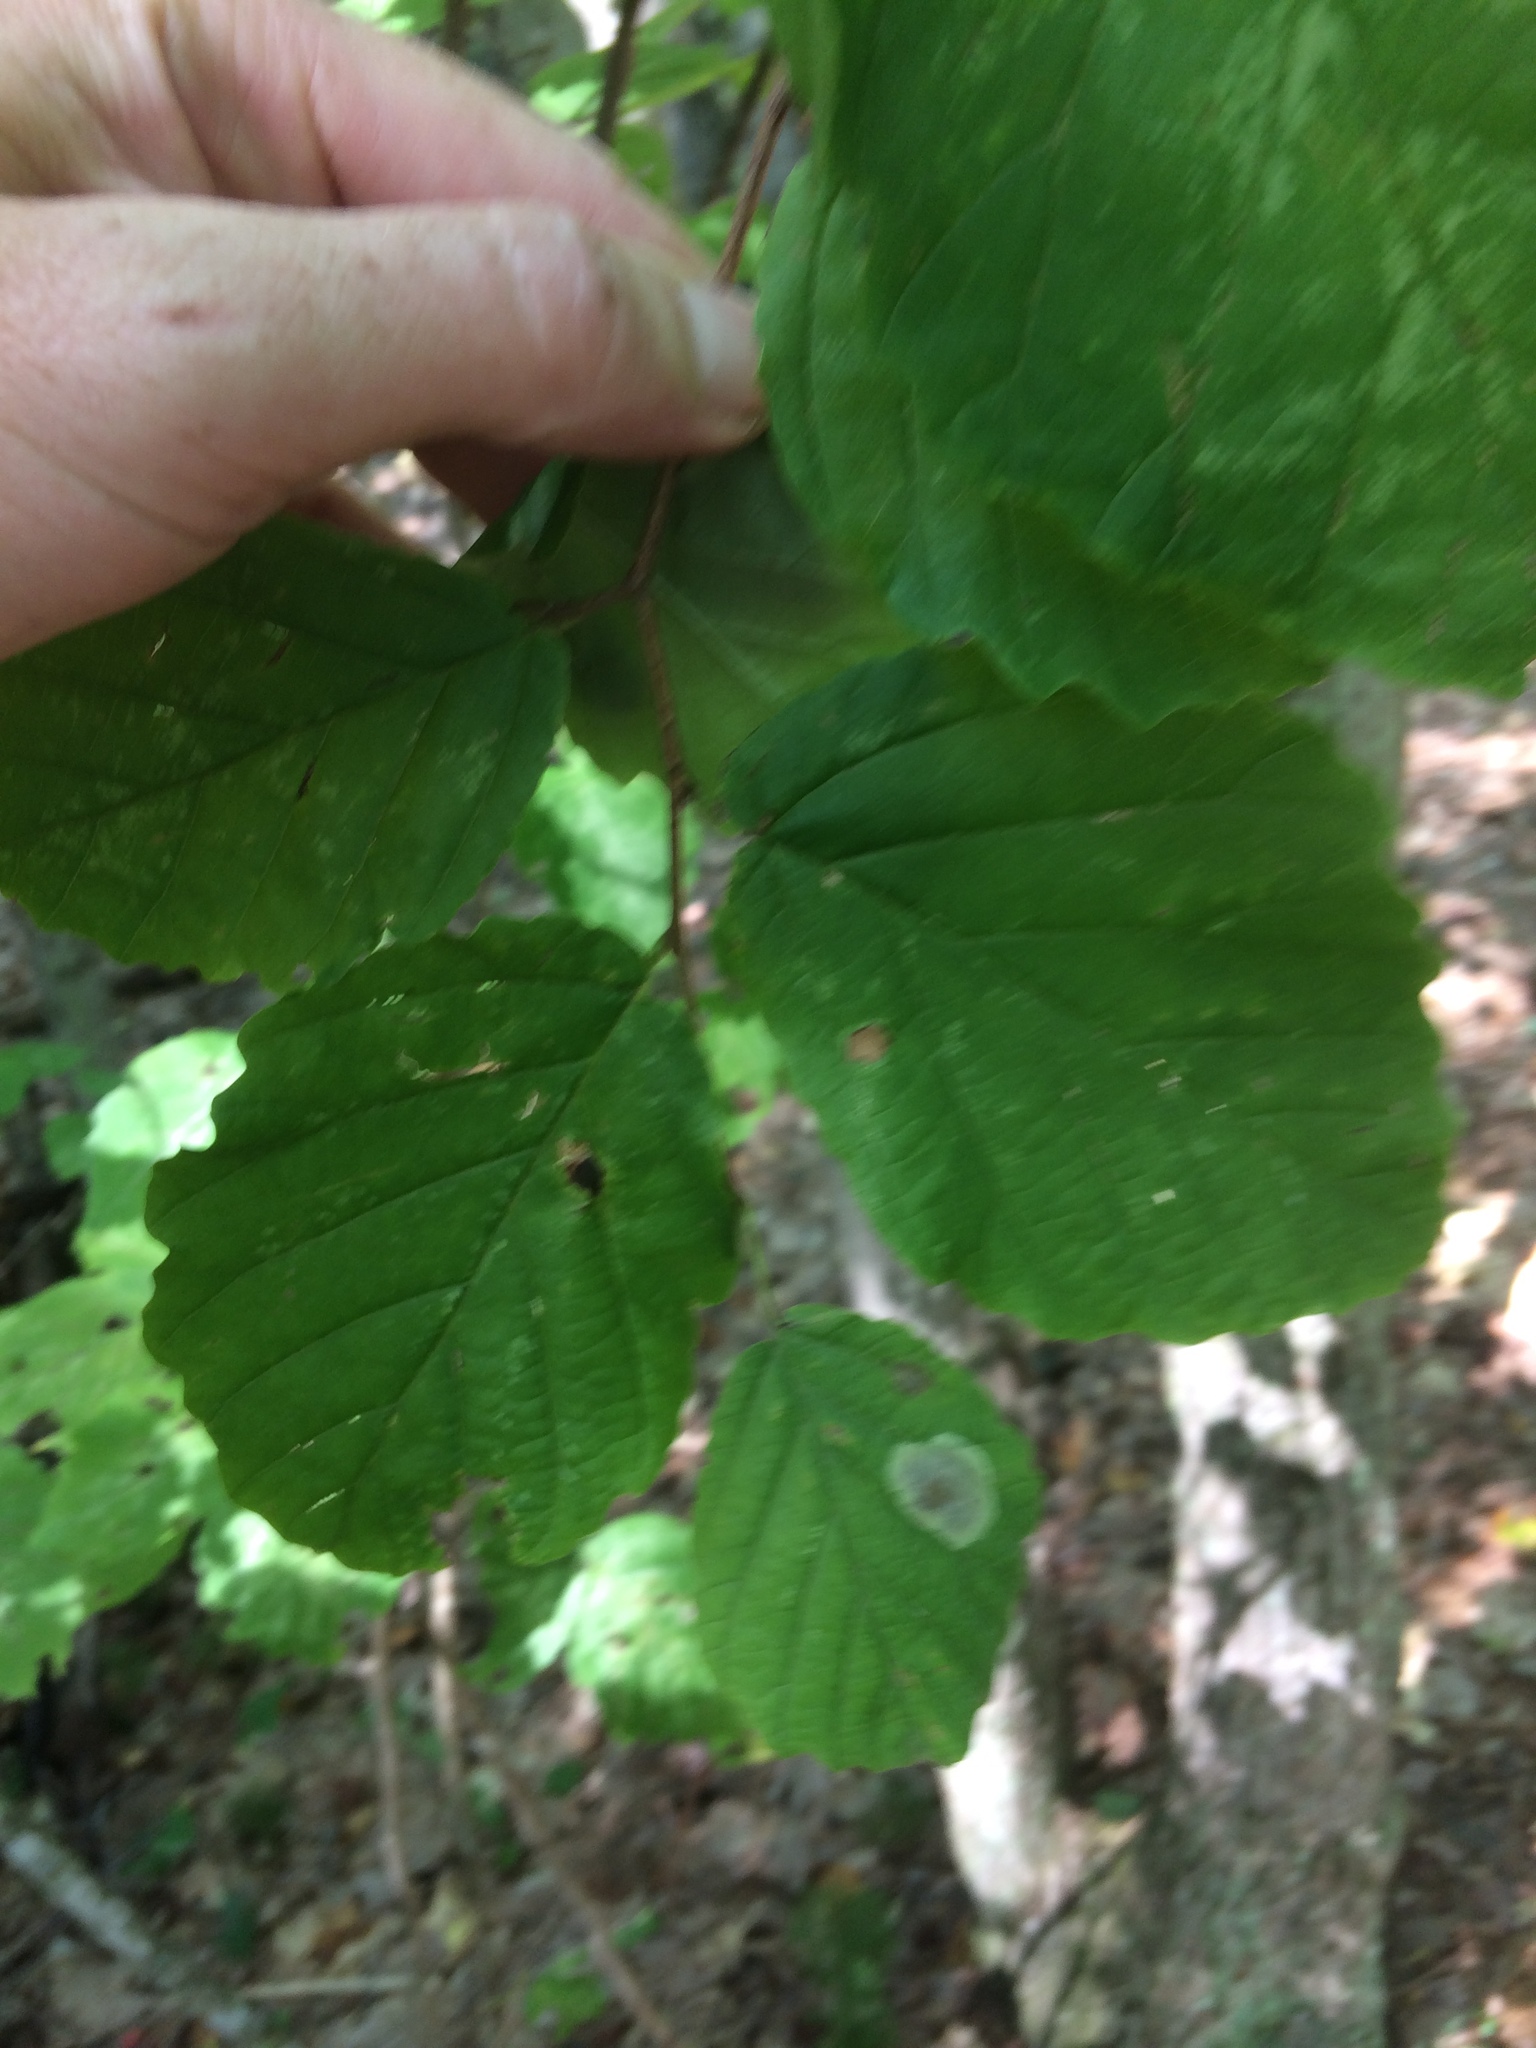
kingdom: Plantae
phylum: Tracheophyta
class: Magnoliopsida
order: Saxifragales
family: Hamamelidaceae
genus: Hamamelis
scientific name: Hamamelis virginiana
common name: Witch-hazel
